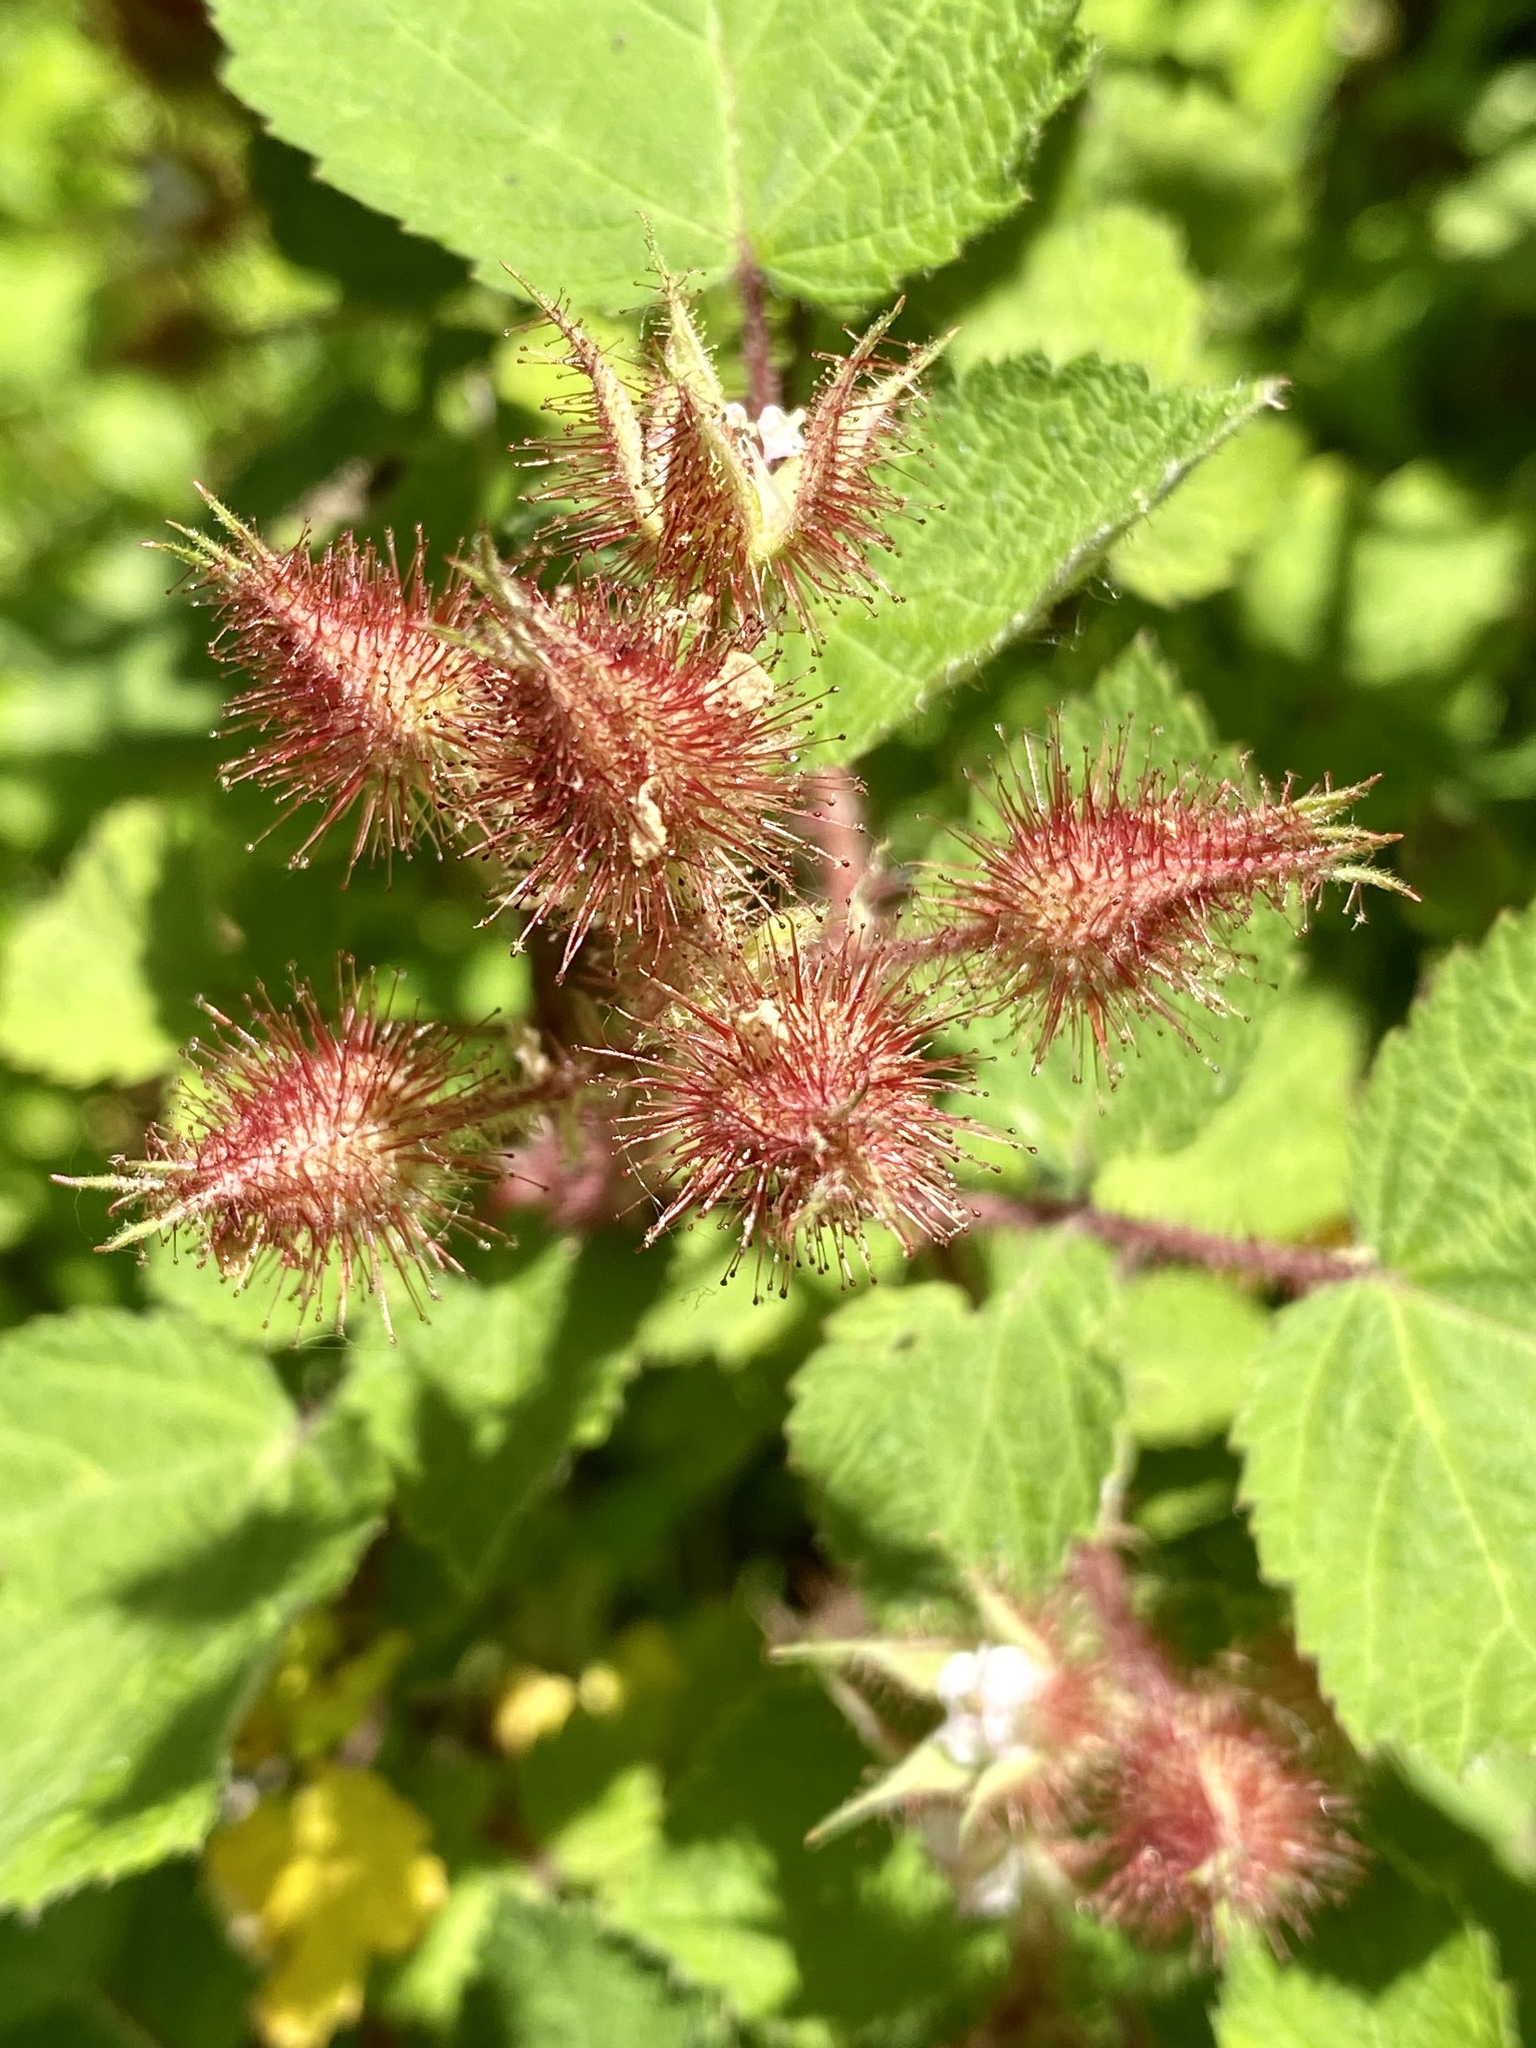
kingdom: Plantae
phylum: Tracheophyta
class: Magnoliopsida
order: Rosales
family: Rosaceae
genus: Rubus
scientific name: Rubus phoenicolasius
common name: Japanese wineberry
